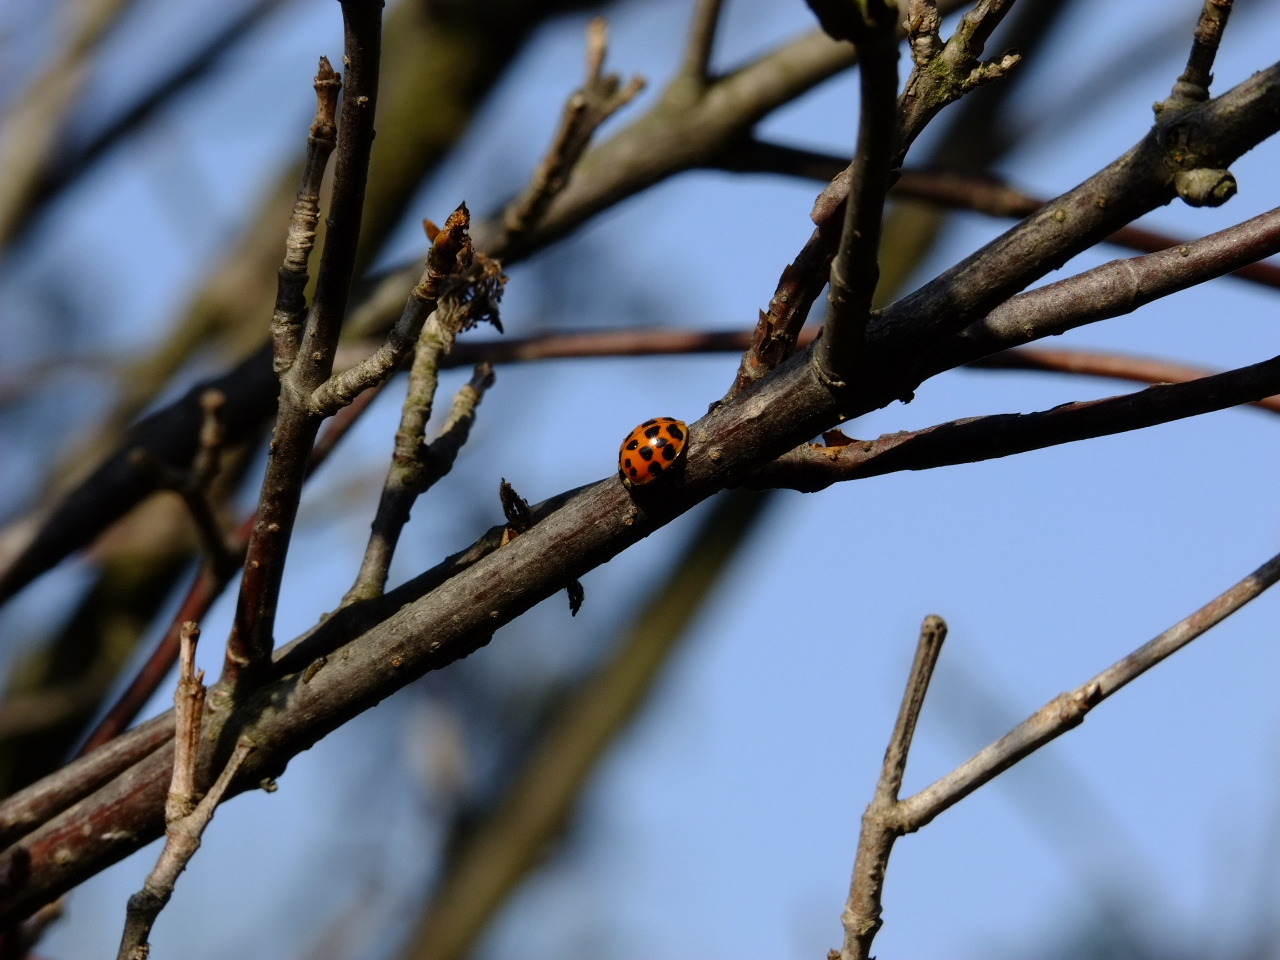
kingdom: Animalia
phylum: Arthropoda
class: Insecta
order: Coleoptera
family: Coccinellidae
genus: Harmonia
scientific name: Harmonia axyridis
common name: Harlequin ladybird
